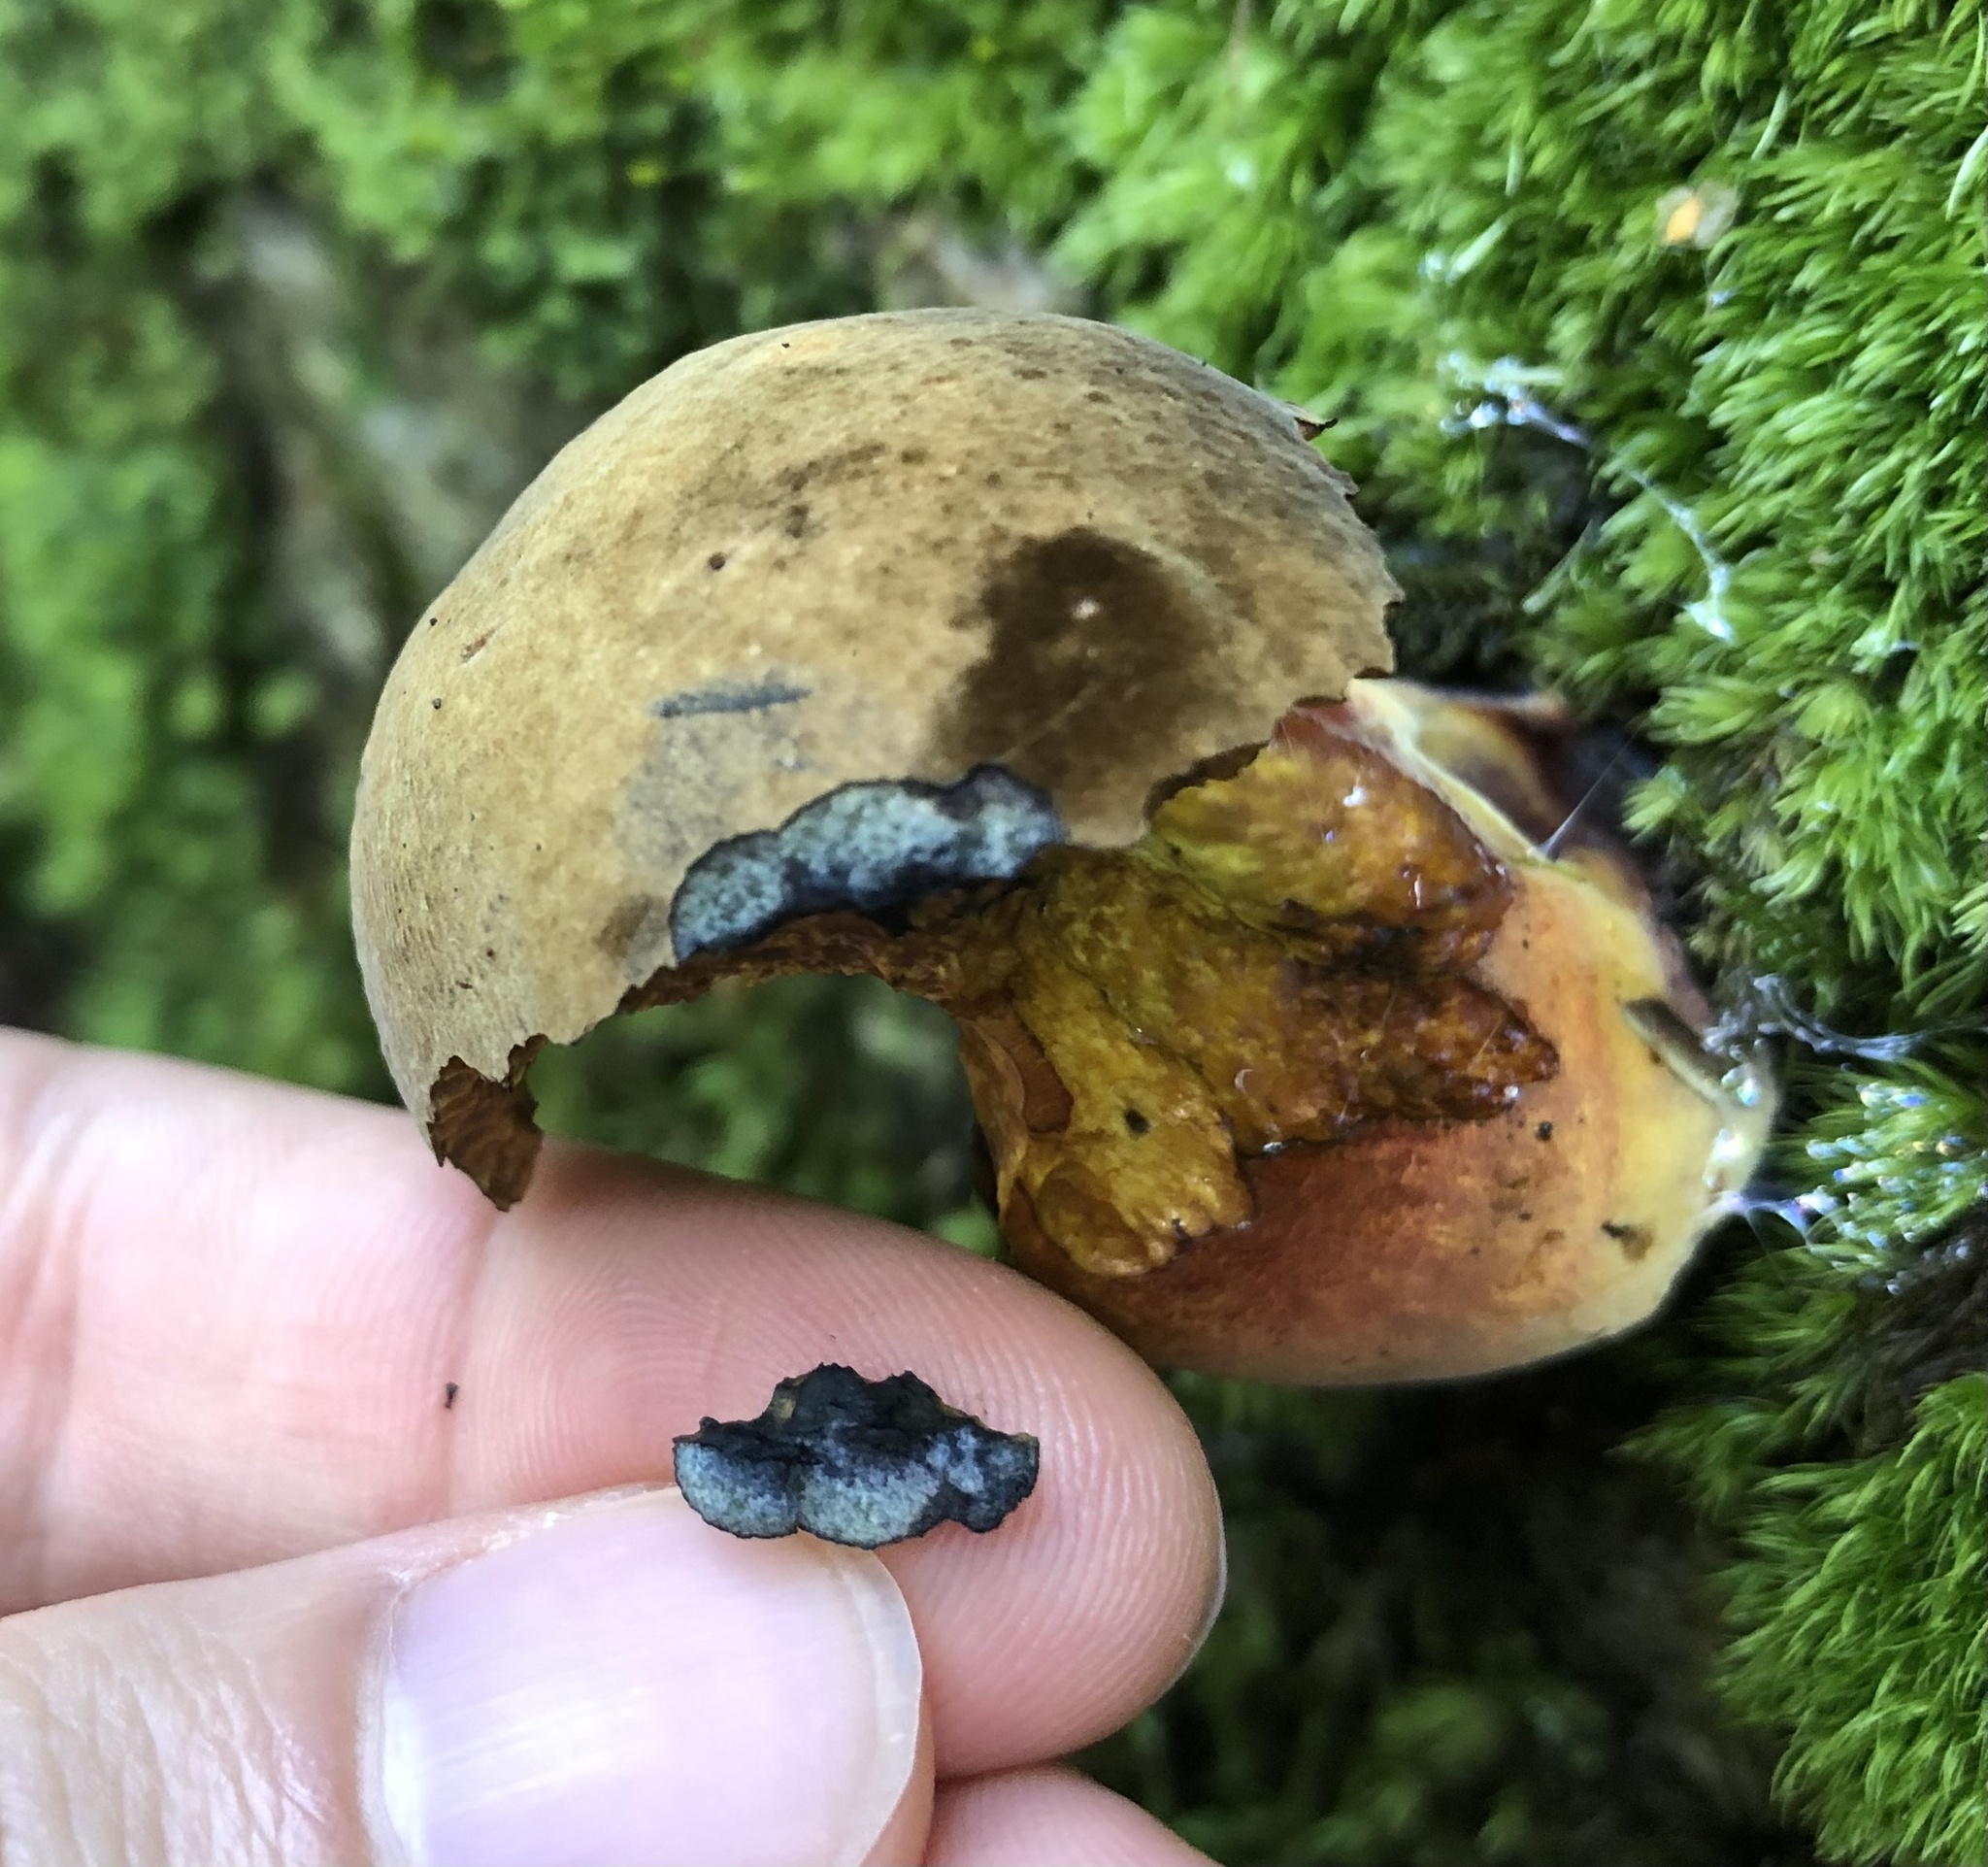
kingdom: Fungi
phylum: Basidiomycota
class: Agaricomycetes
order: Boletales
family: Boletaceae
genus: Neoboletus
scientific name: Neoboletus erythropus
